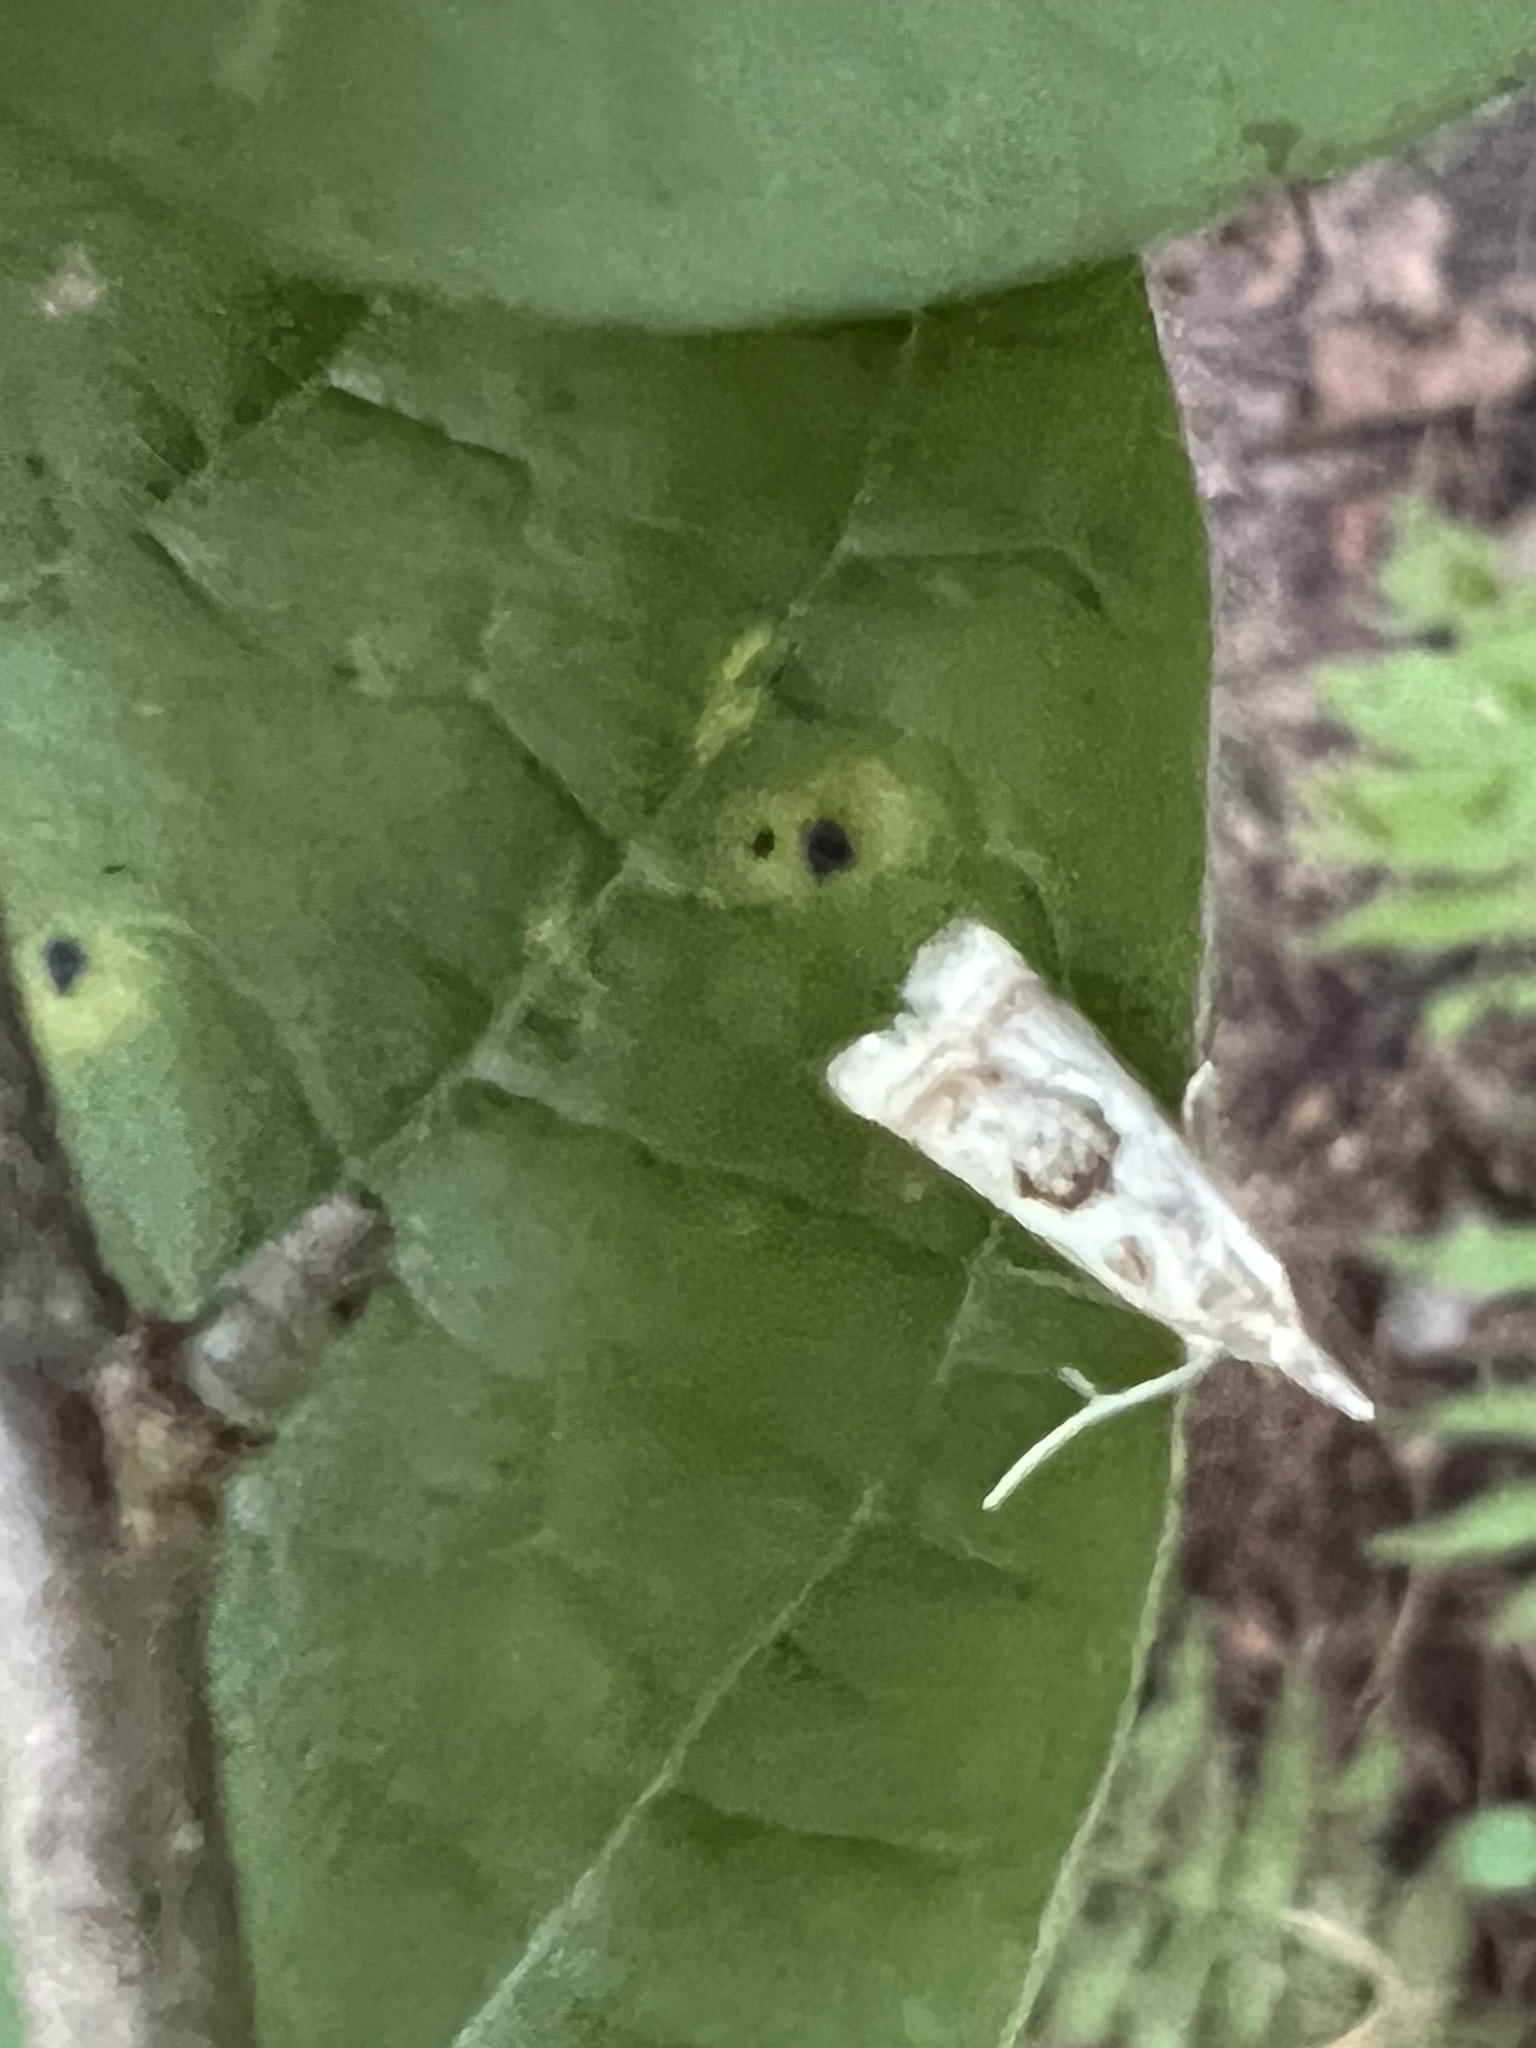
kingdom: Animalia
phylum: Arthropoda
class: Insecta
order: Lepidoptera
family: Crambidae
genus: Microcrambus
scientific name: Microcrambus elegans
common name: Elegant grass-veneer
